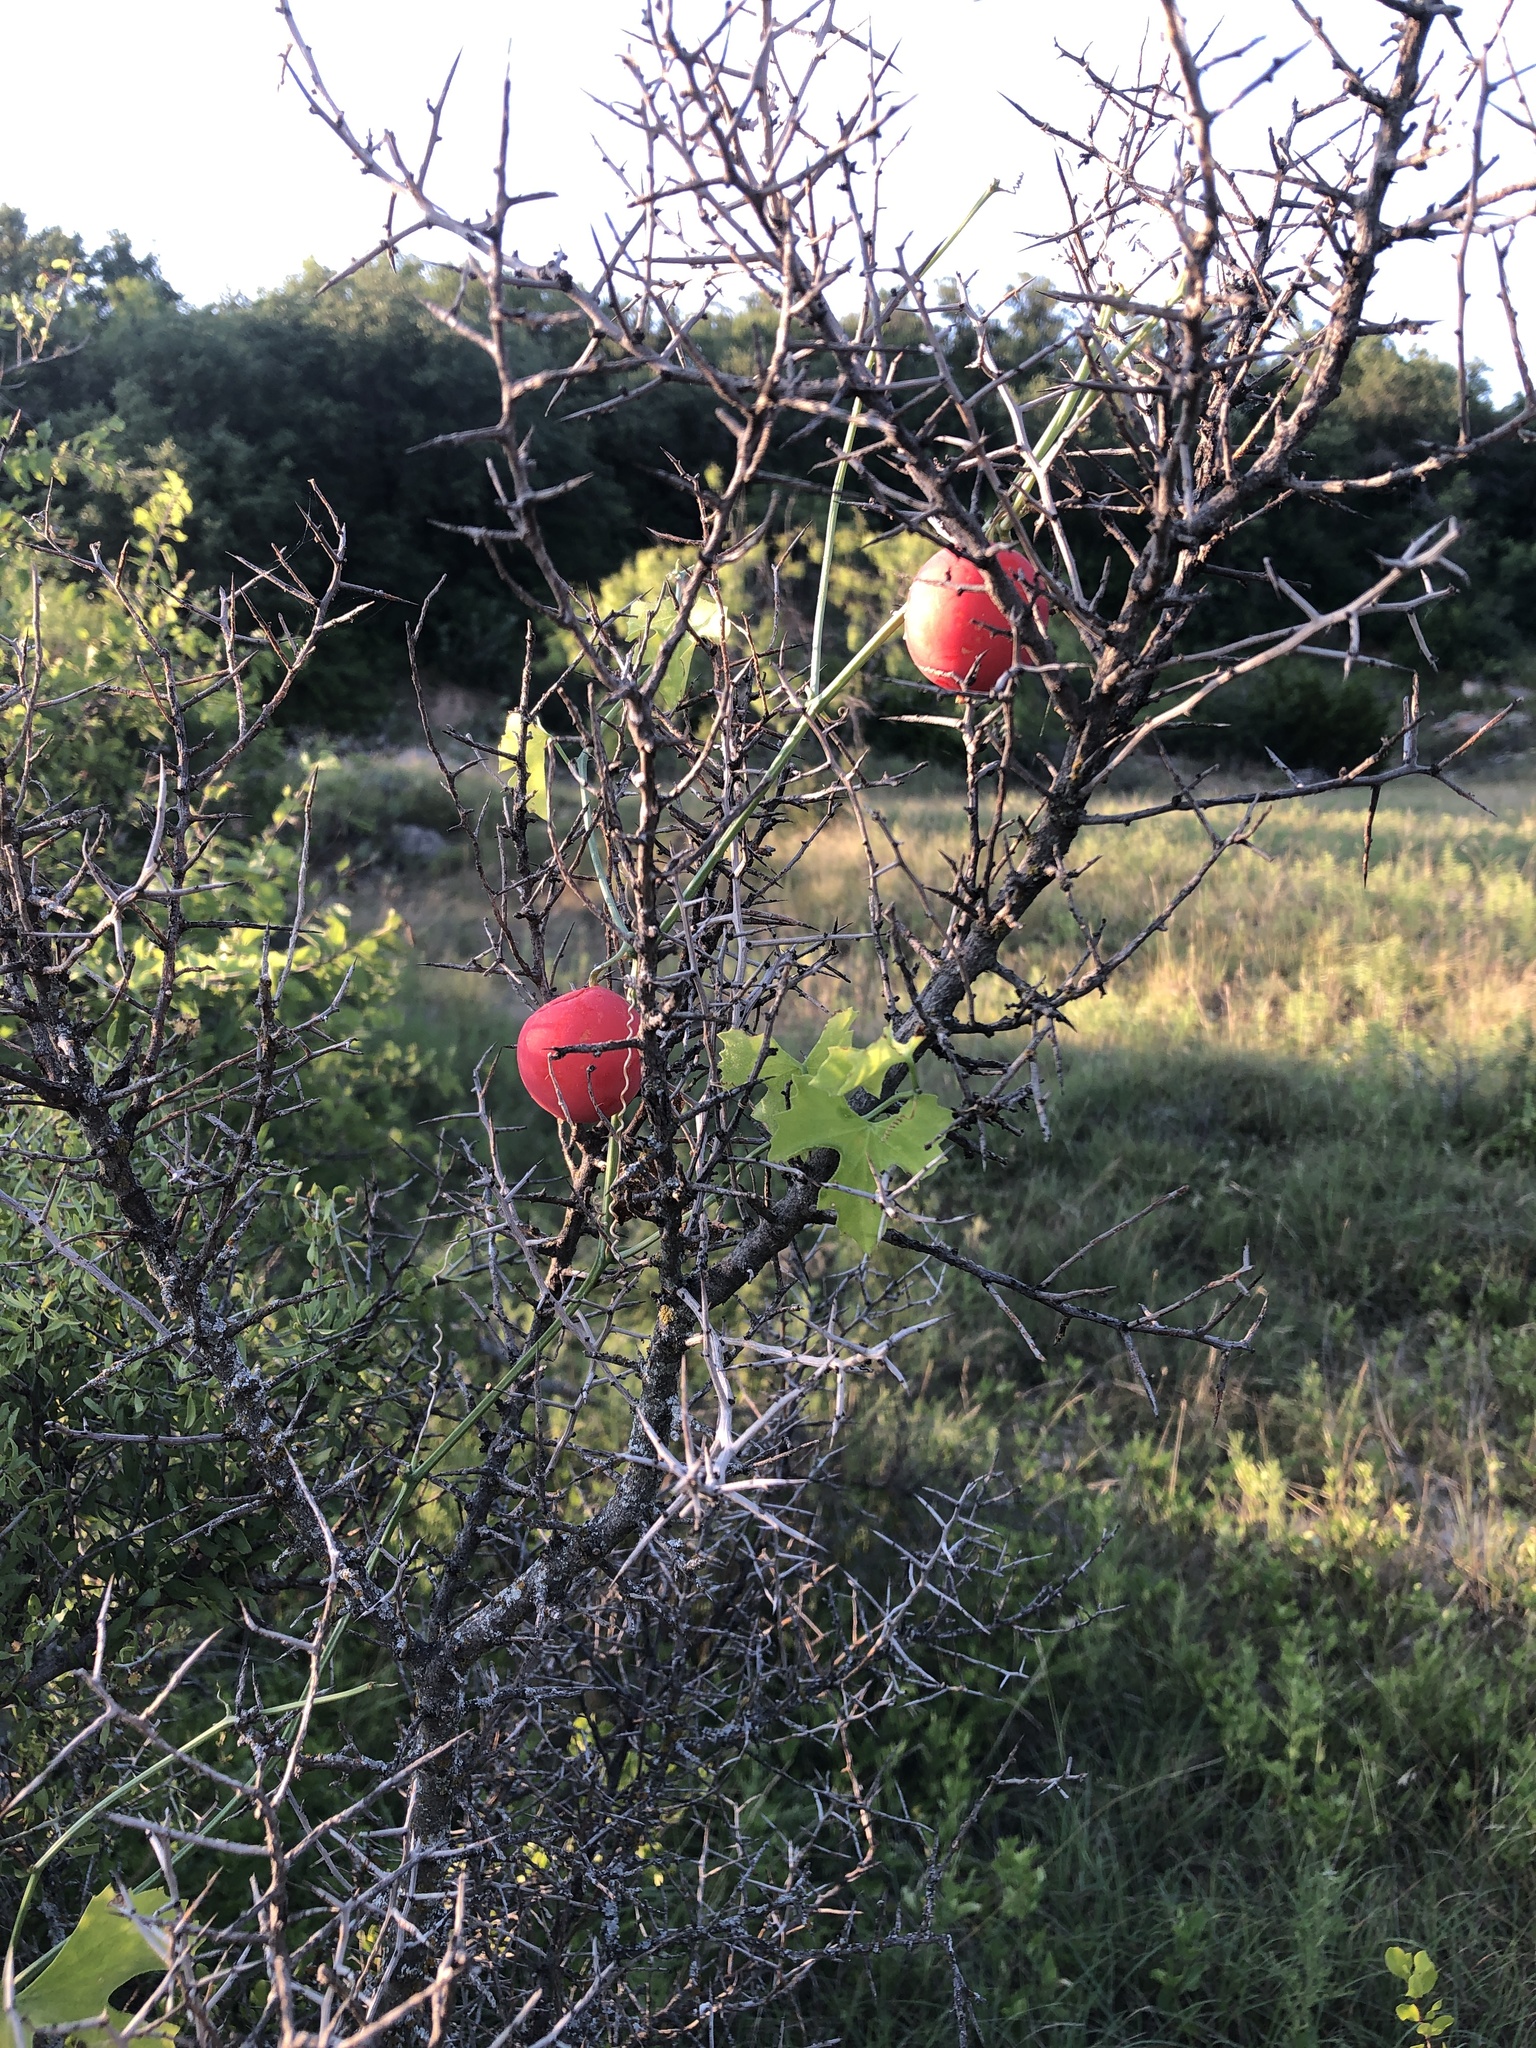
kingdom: Plantae
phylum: Tracheophyta
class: Magnoliopsida
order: Cucurbitales
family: Cucurbitaceae
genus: Ibervillea
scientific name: Ibervillea lindheimeri
